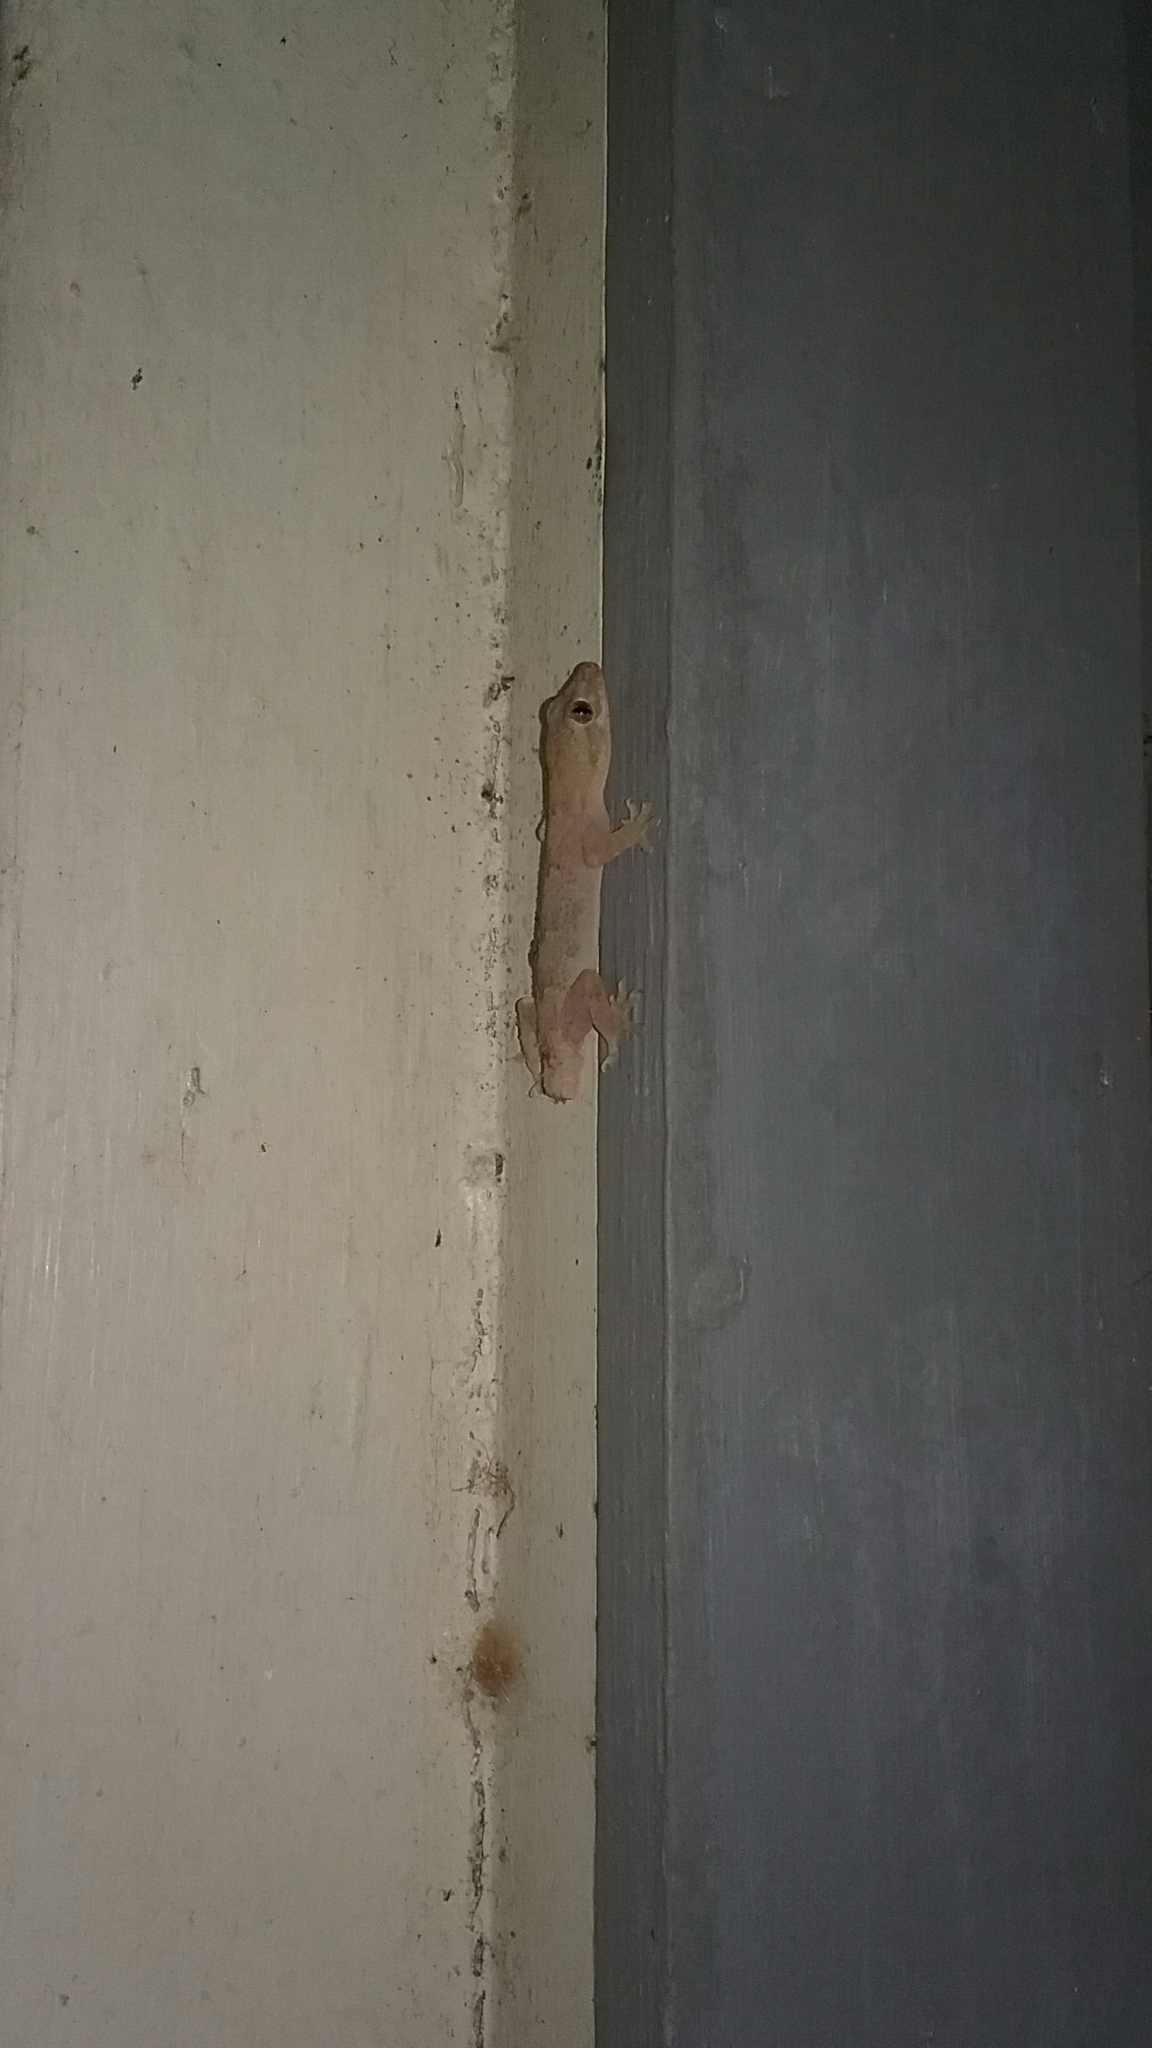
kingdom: Animalia
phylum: Chordata
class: Squamata
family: Gekkonidae
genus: Hemidactylus
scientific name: Hemidactylus mabouia
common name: House gecko
